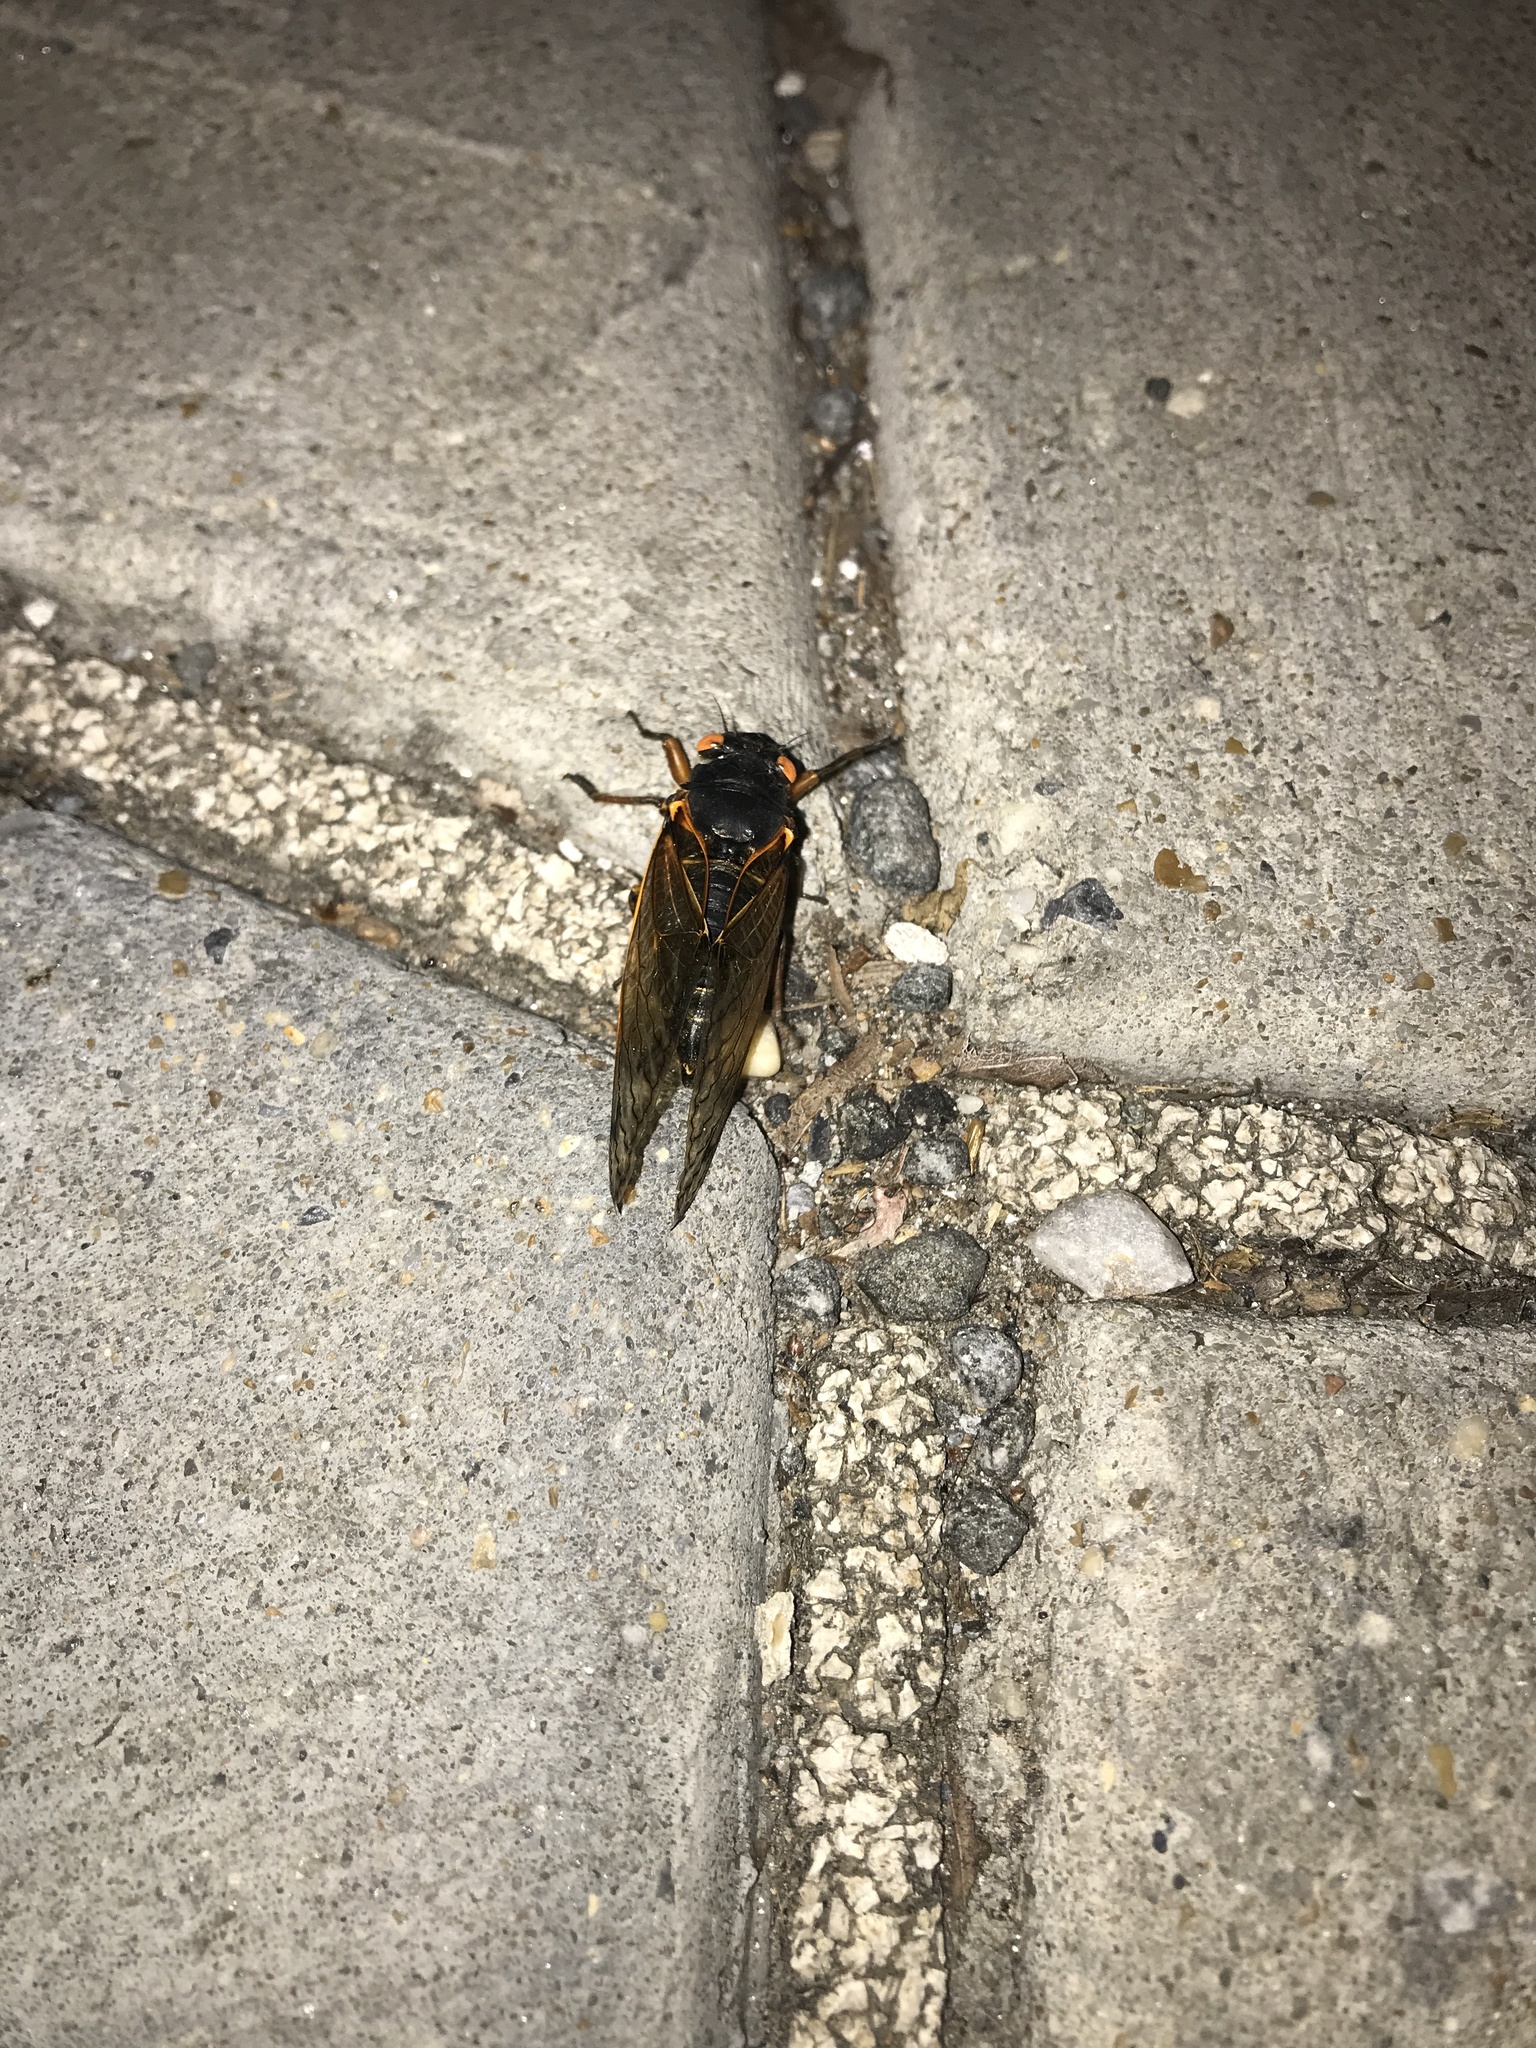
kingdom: Animalia
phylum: Arthropoda
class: Insecta
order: Hemiptera
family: Cicadidae
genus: Magicicada
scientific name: Magicicada
